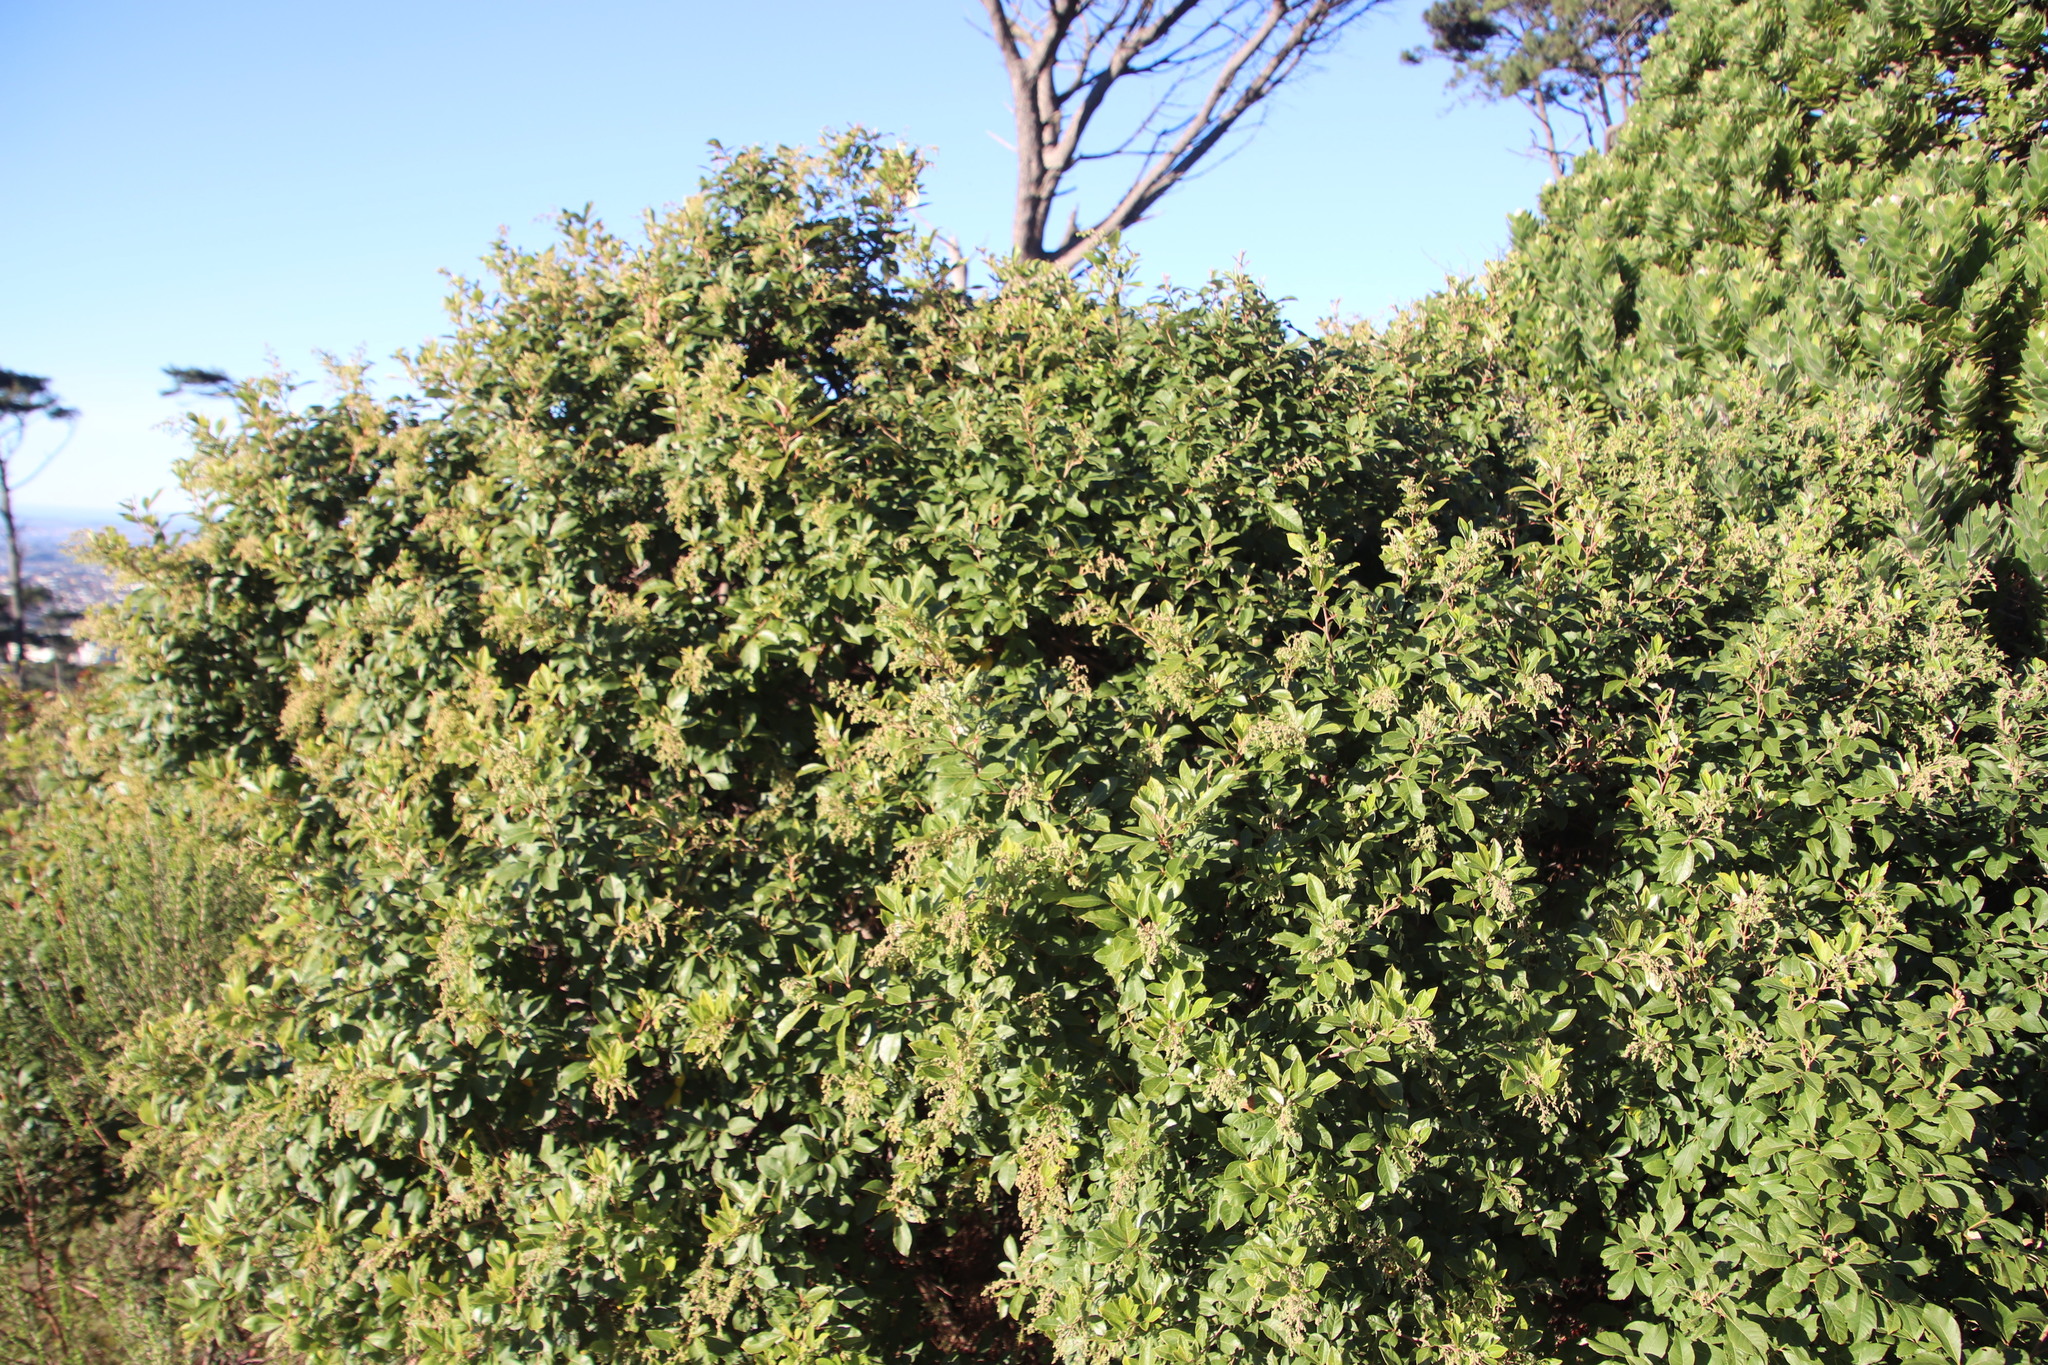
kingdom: Plantae
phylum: Tracheophyta
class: Magnoliopsida
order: Sapindales
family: Anacardiaceae
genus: Searsia
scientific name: Searsia tomentosa
